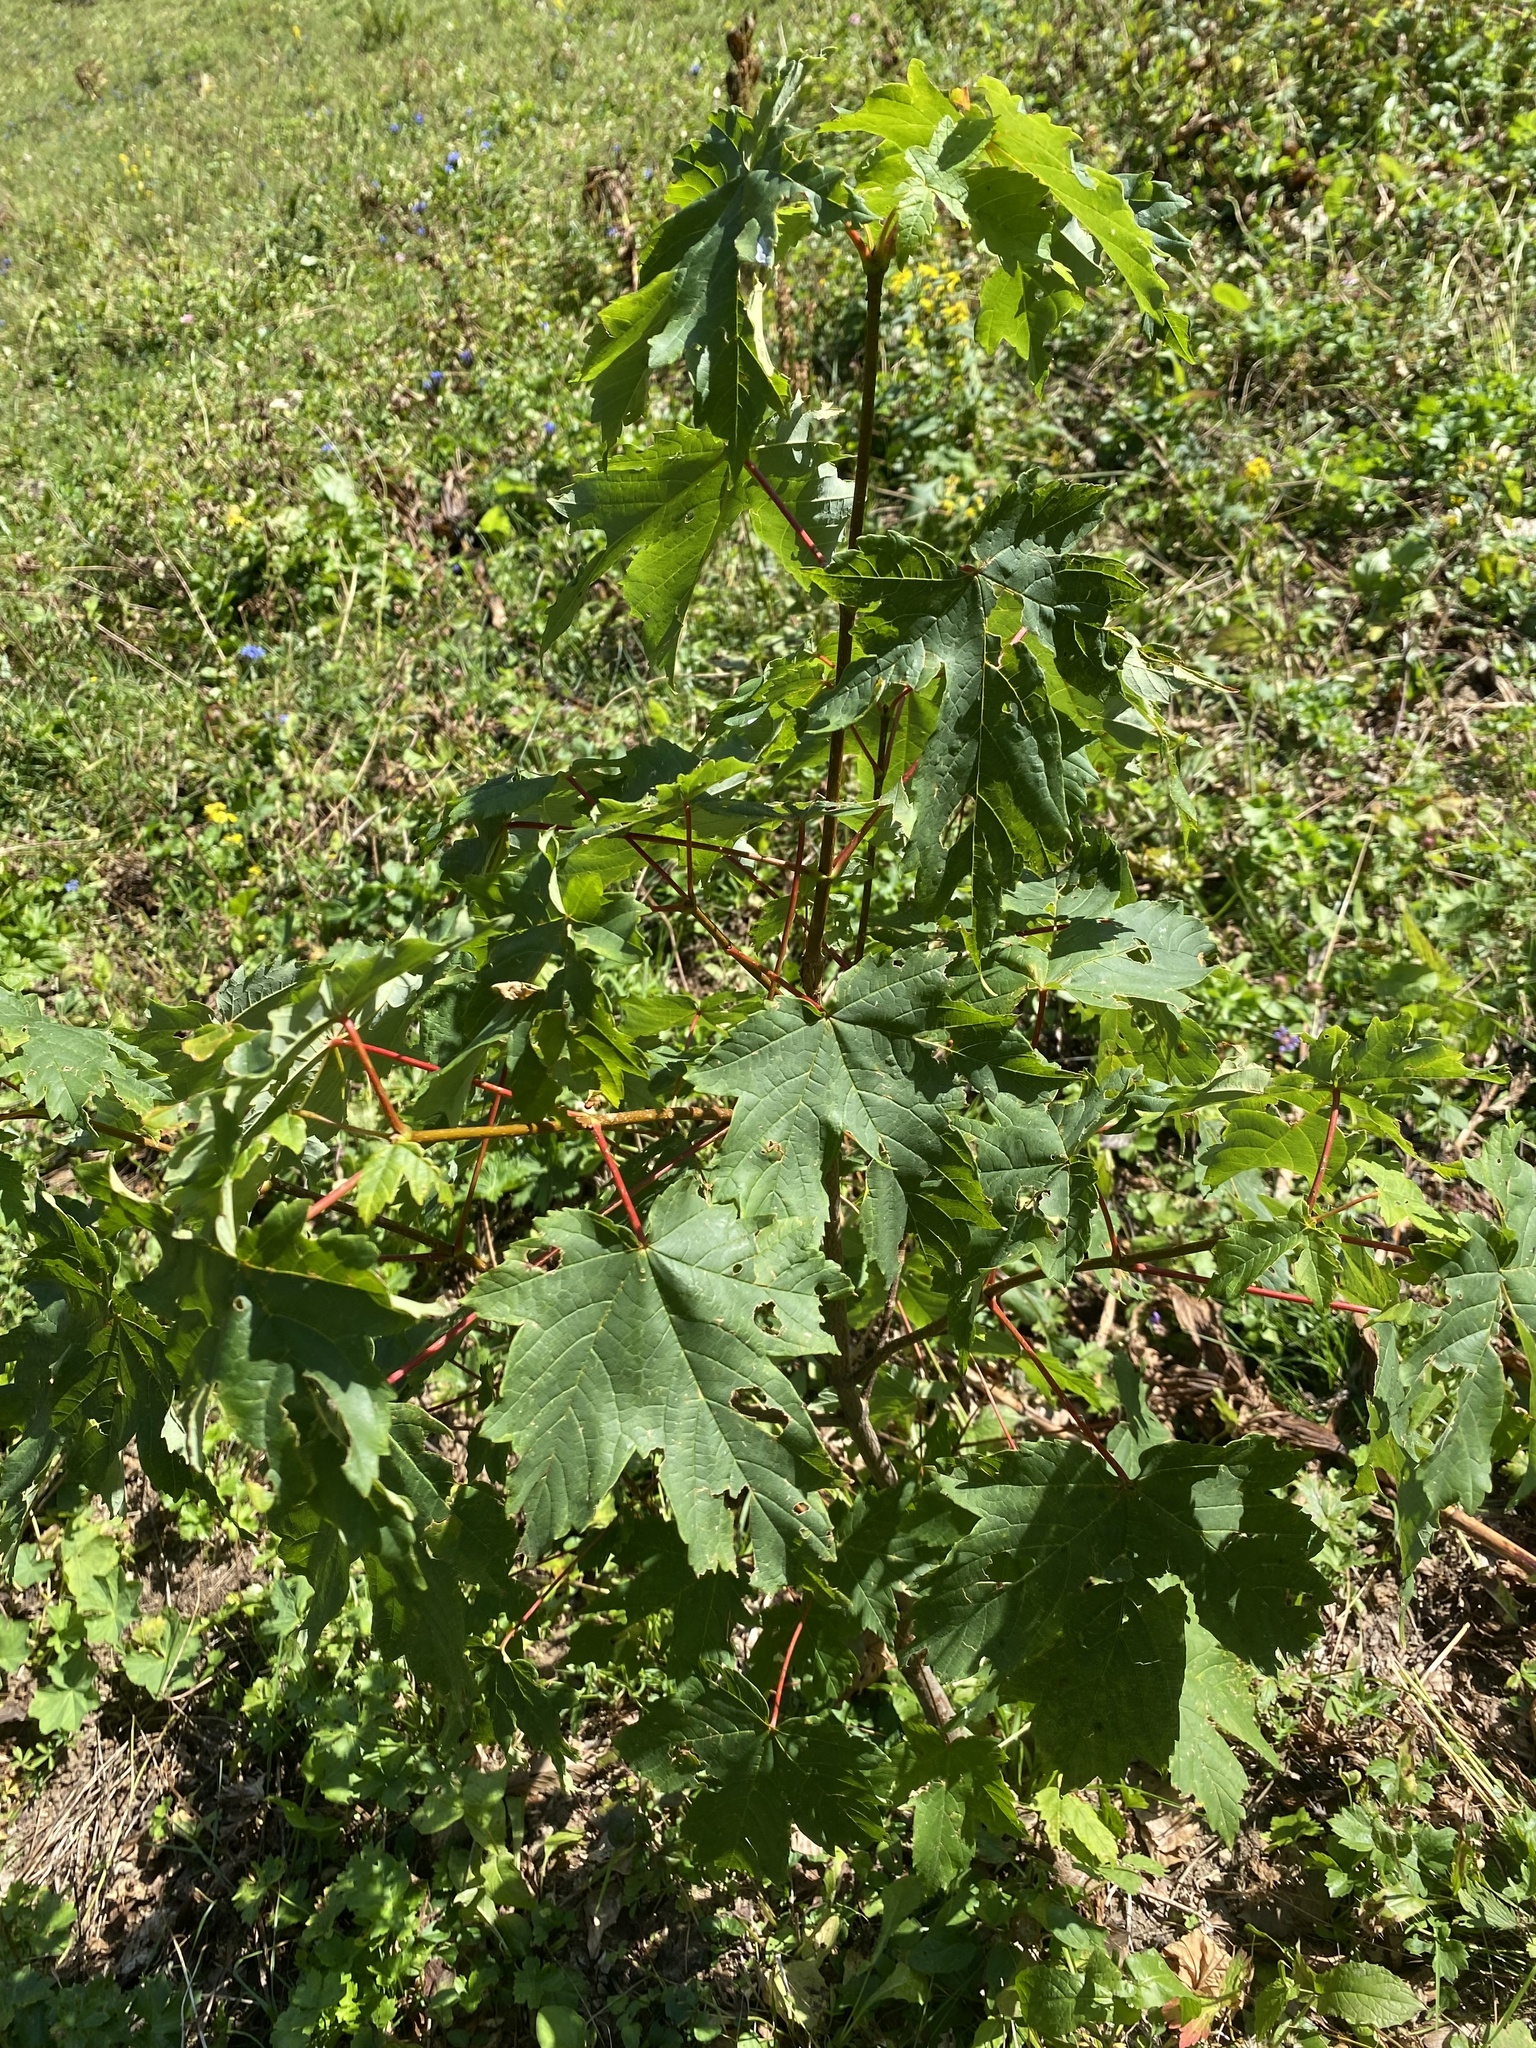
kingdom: Plantae
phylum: Tracheophyta
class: Magnoliopsida
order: Sapindales
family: Sapindaceae
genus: Acer
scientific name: Acer pseudoplatanus
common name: Sycamore
